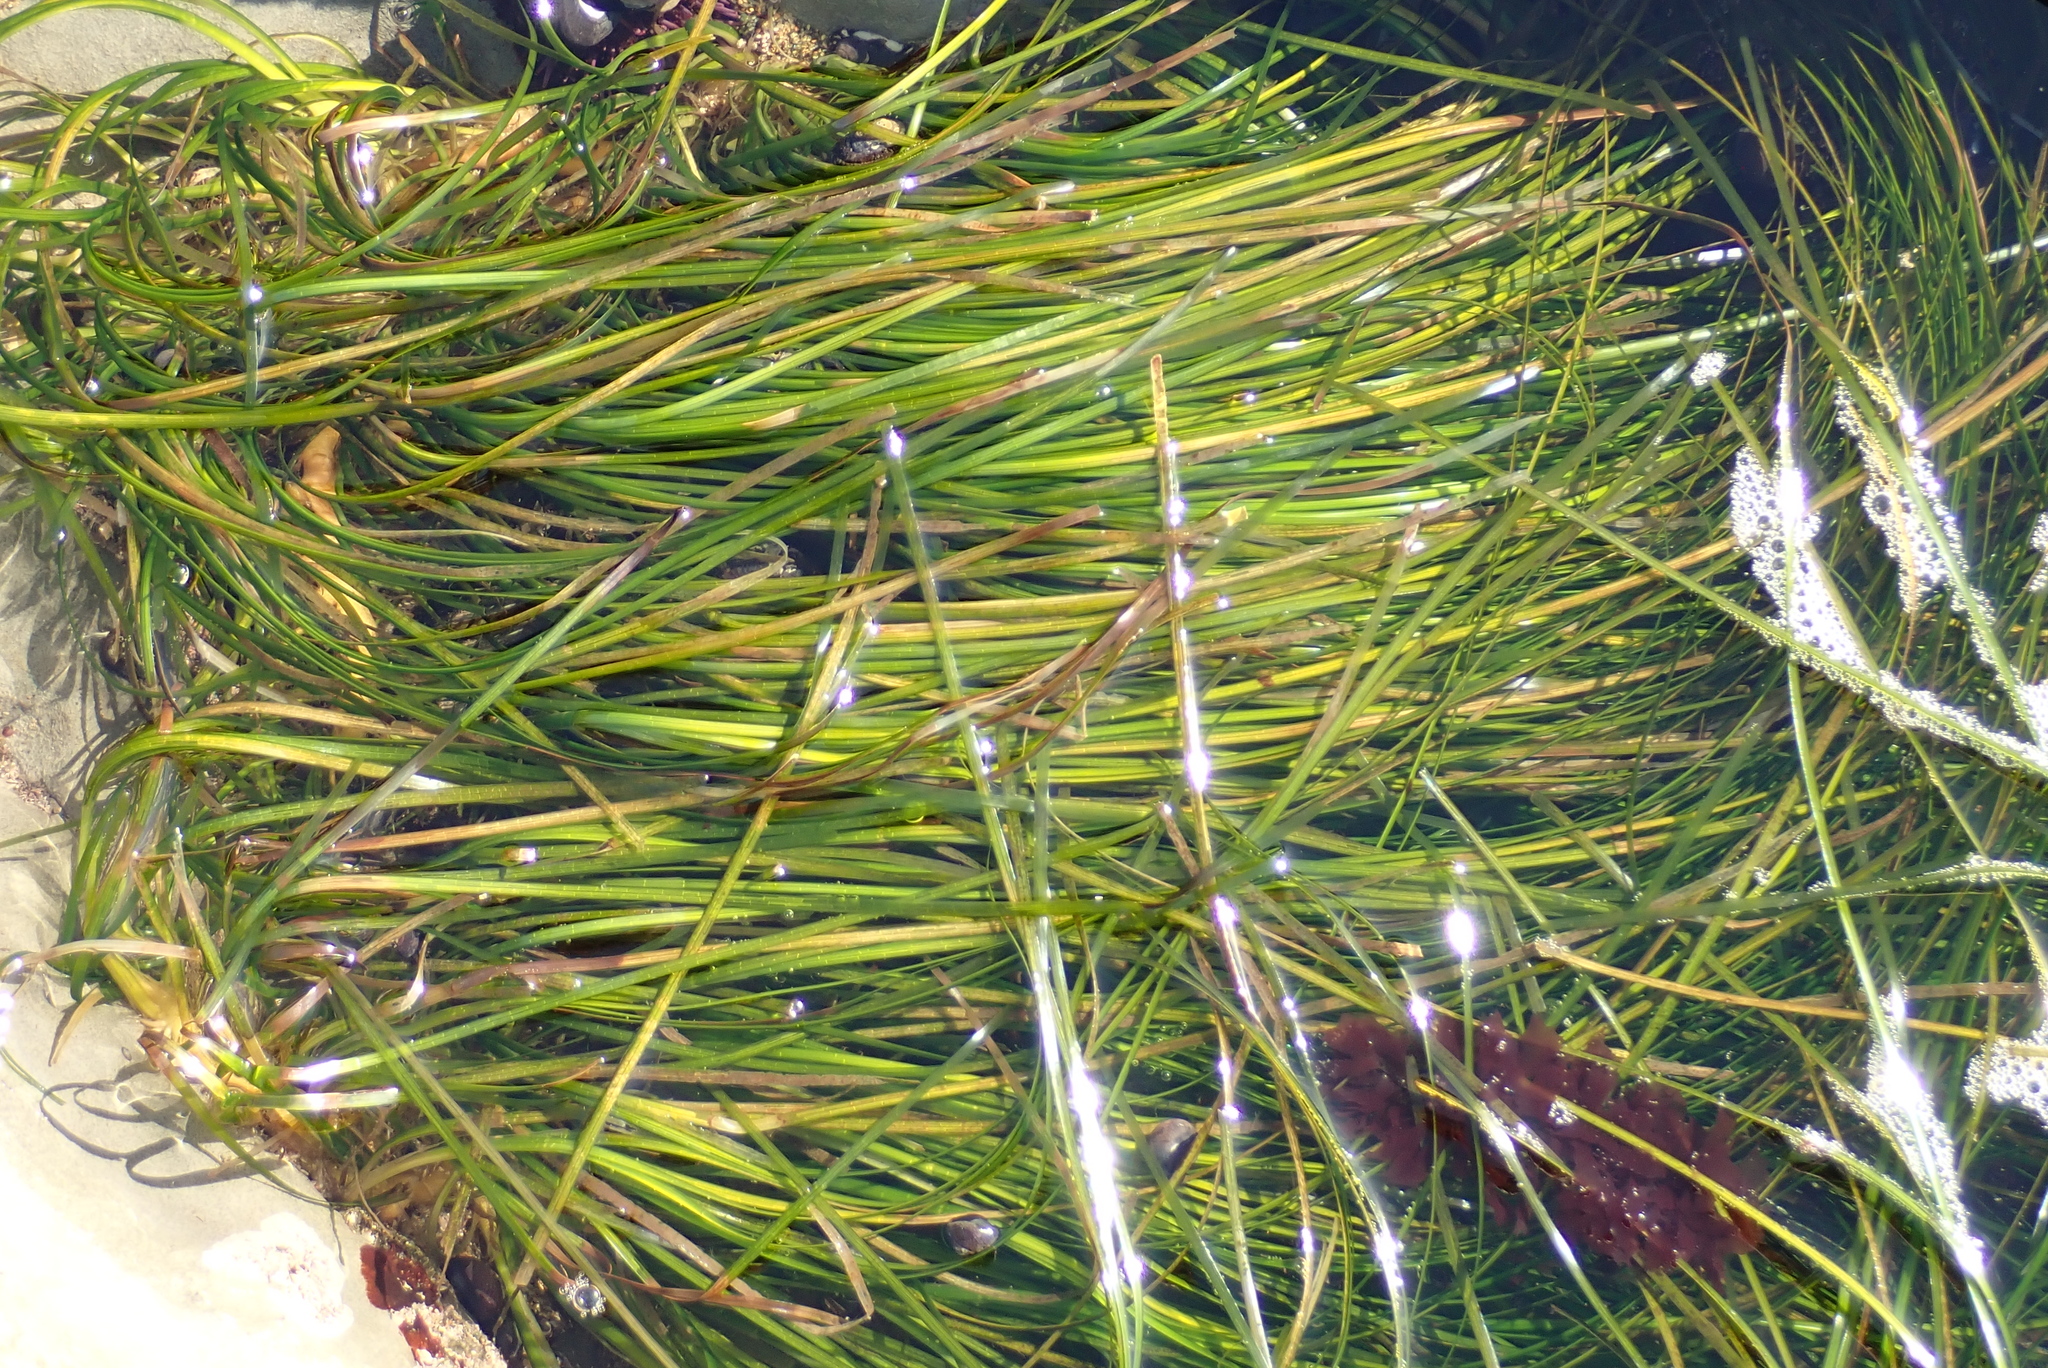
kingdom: Plantae
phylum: Tracheophyta
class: Liliopsida
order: Alismatales
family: Zosteraceae
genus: Phyllospadix
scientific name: Phyllospadix torreyi
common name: Surfgrass
